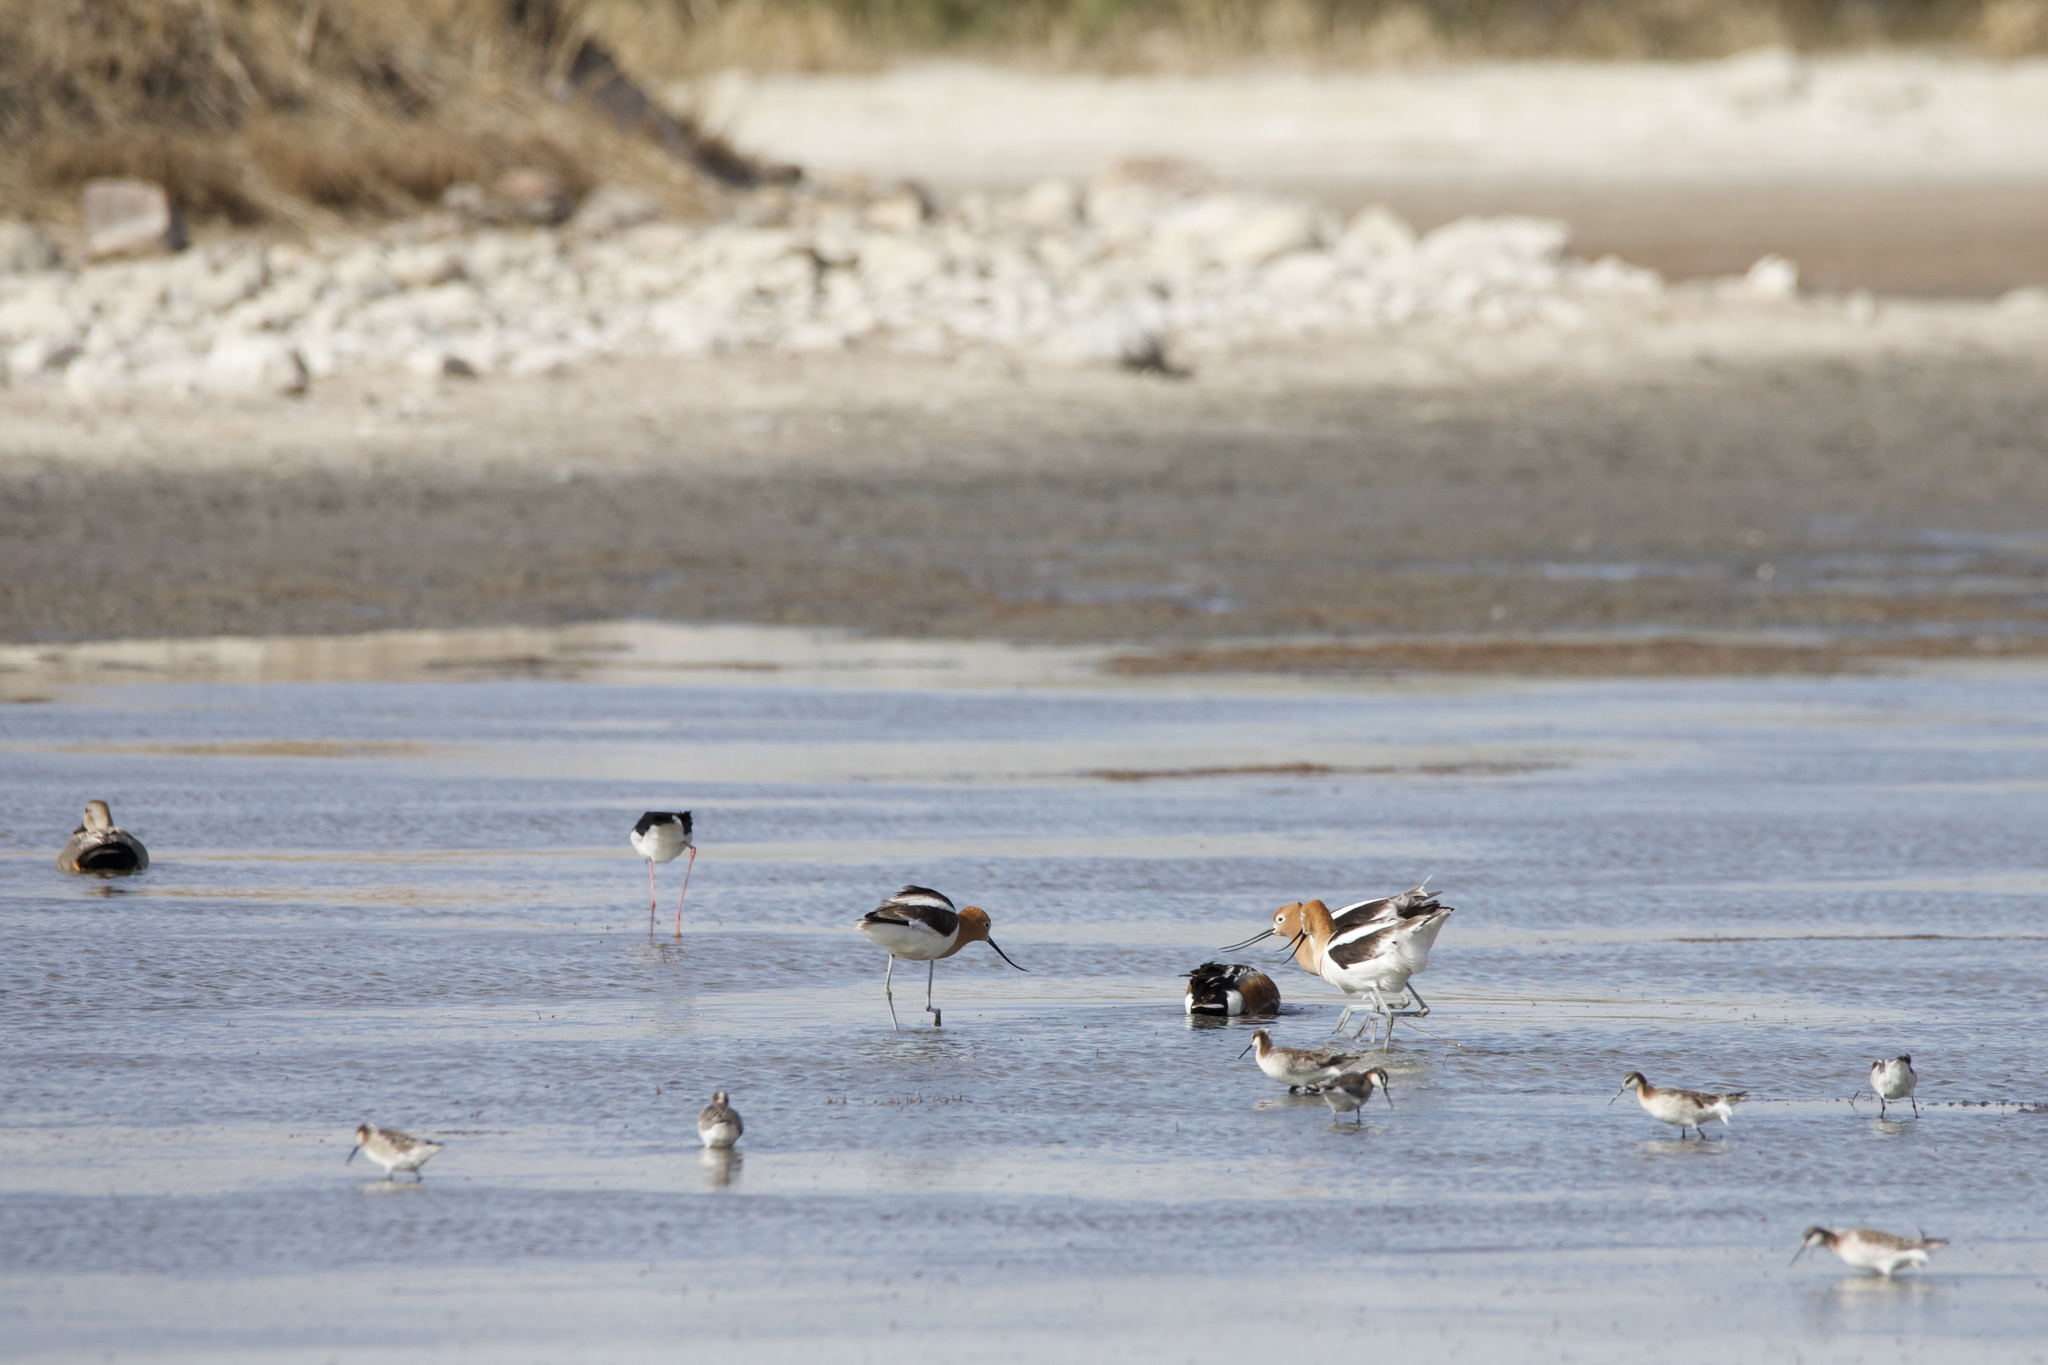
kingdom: Animalia
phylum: Chordata
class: Aves
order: Charadriiformes
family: Recurvirostridae
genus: Recurvirostra
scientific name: Recurvirostra americana
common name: American avocet
